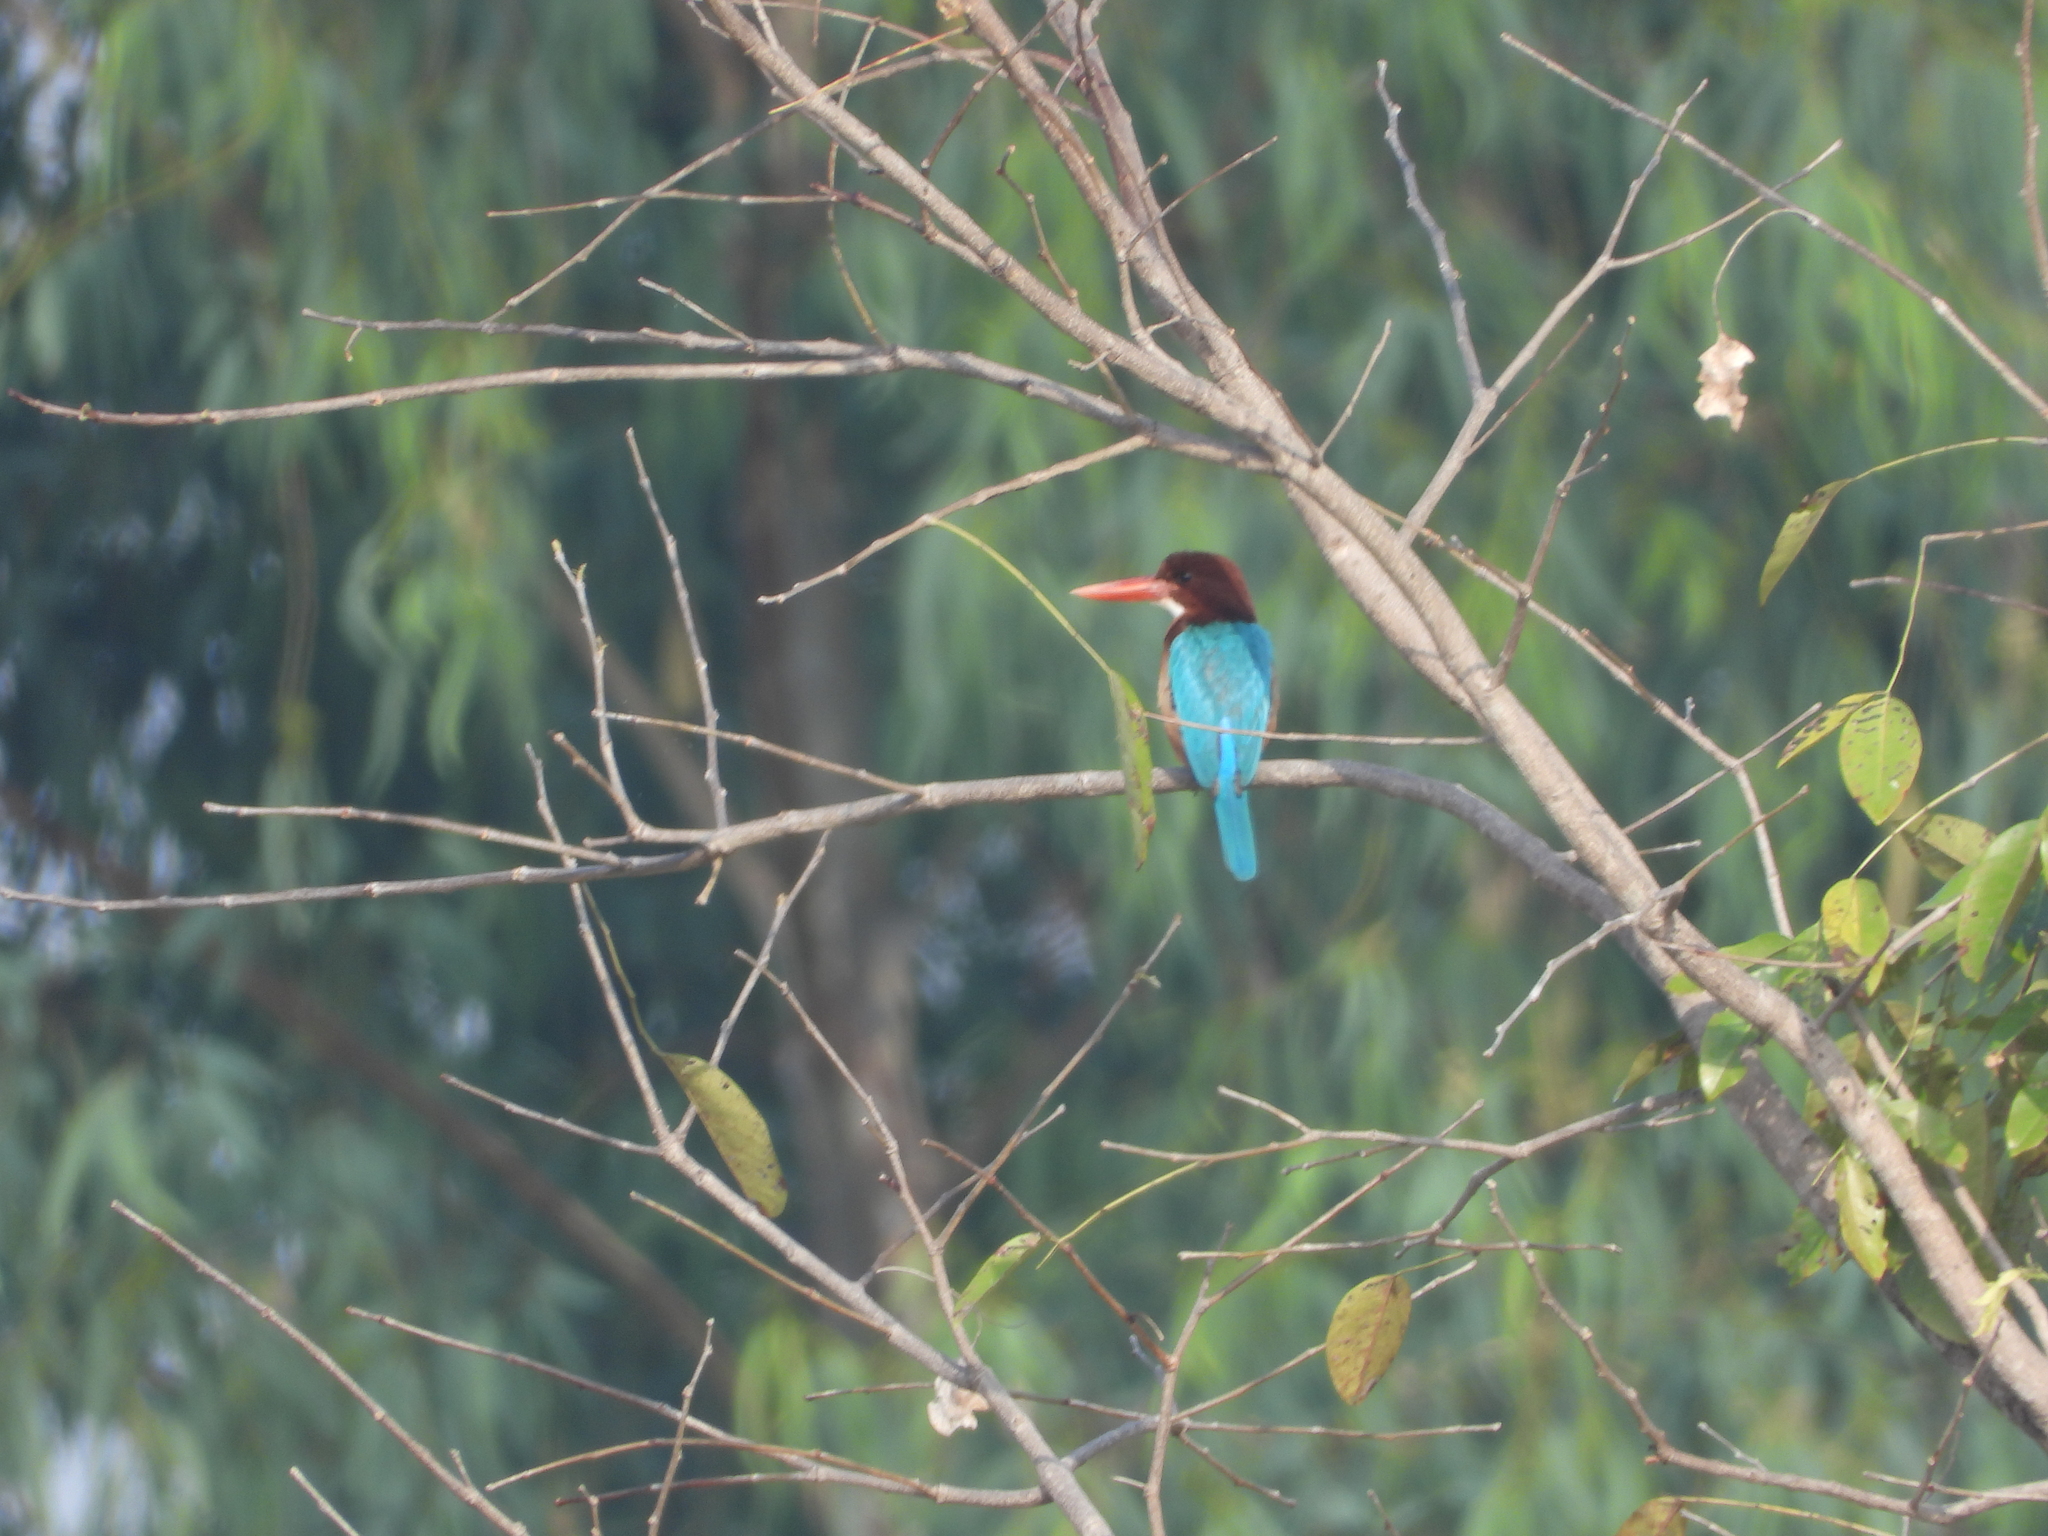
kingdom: Animalia
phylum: Chordata
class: Aves
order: Coraciiformes
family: Alcedinidae
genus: Halcyon
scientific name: Halcyon smyrnensis
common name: White-throated kingfisher
